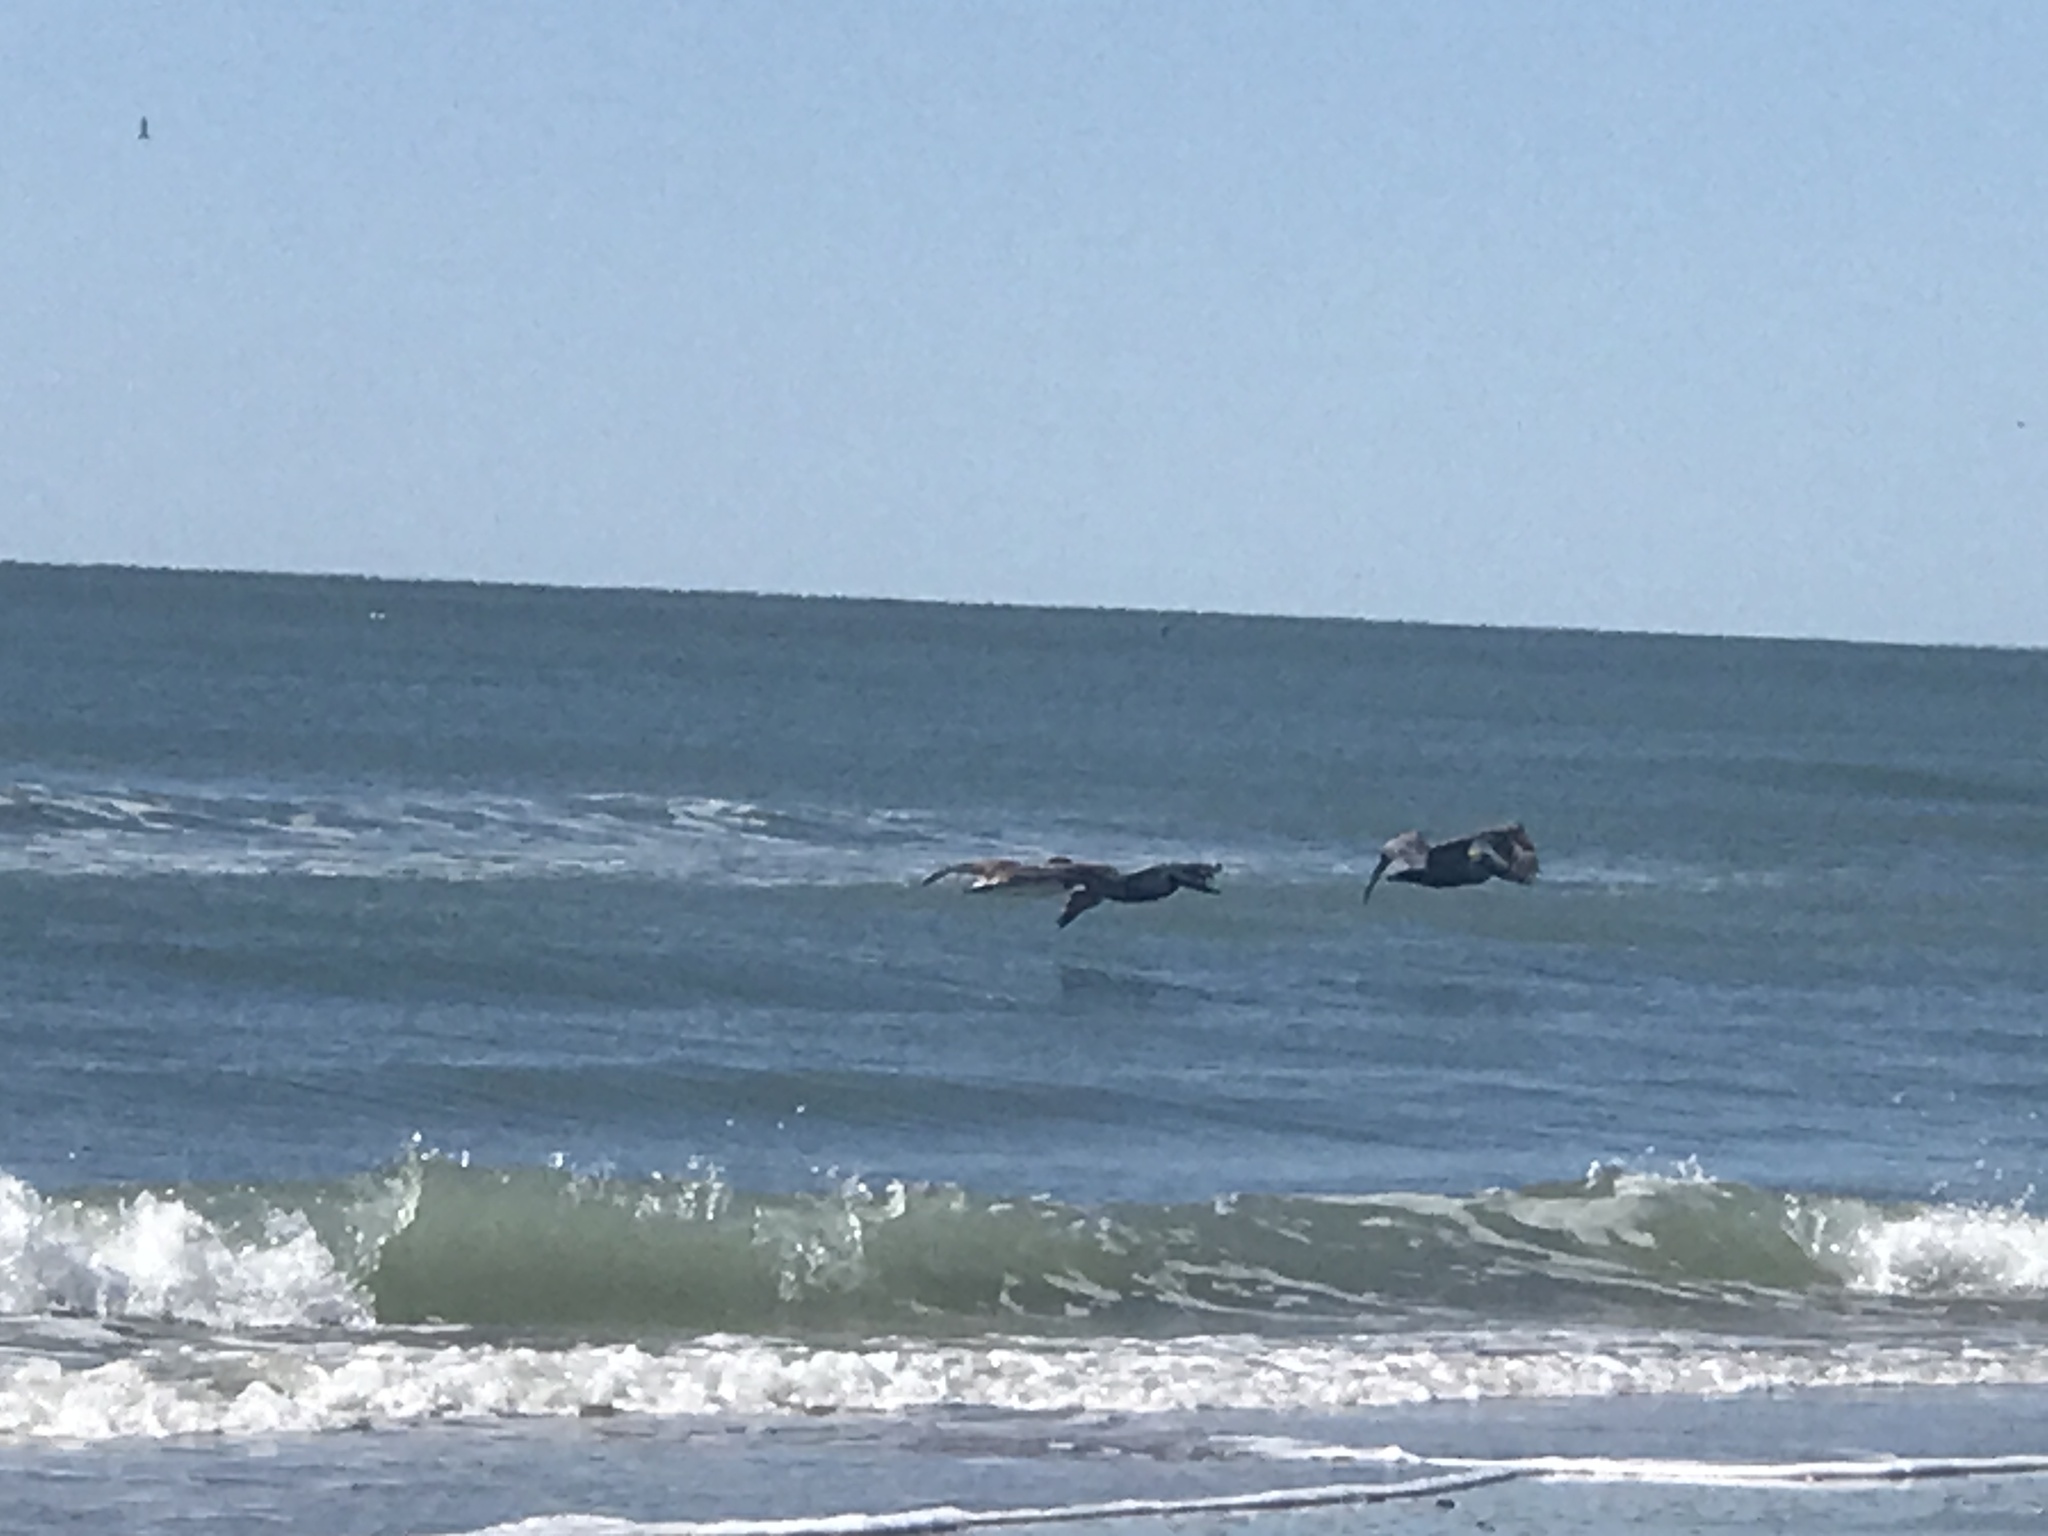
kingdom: Animalia
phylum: Chordata
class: Aves
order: Pelecaniformes
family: Pelecanidae
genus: Pelecanus
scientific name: Pelecanus occidentalis
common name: Brown pelican
